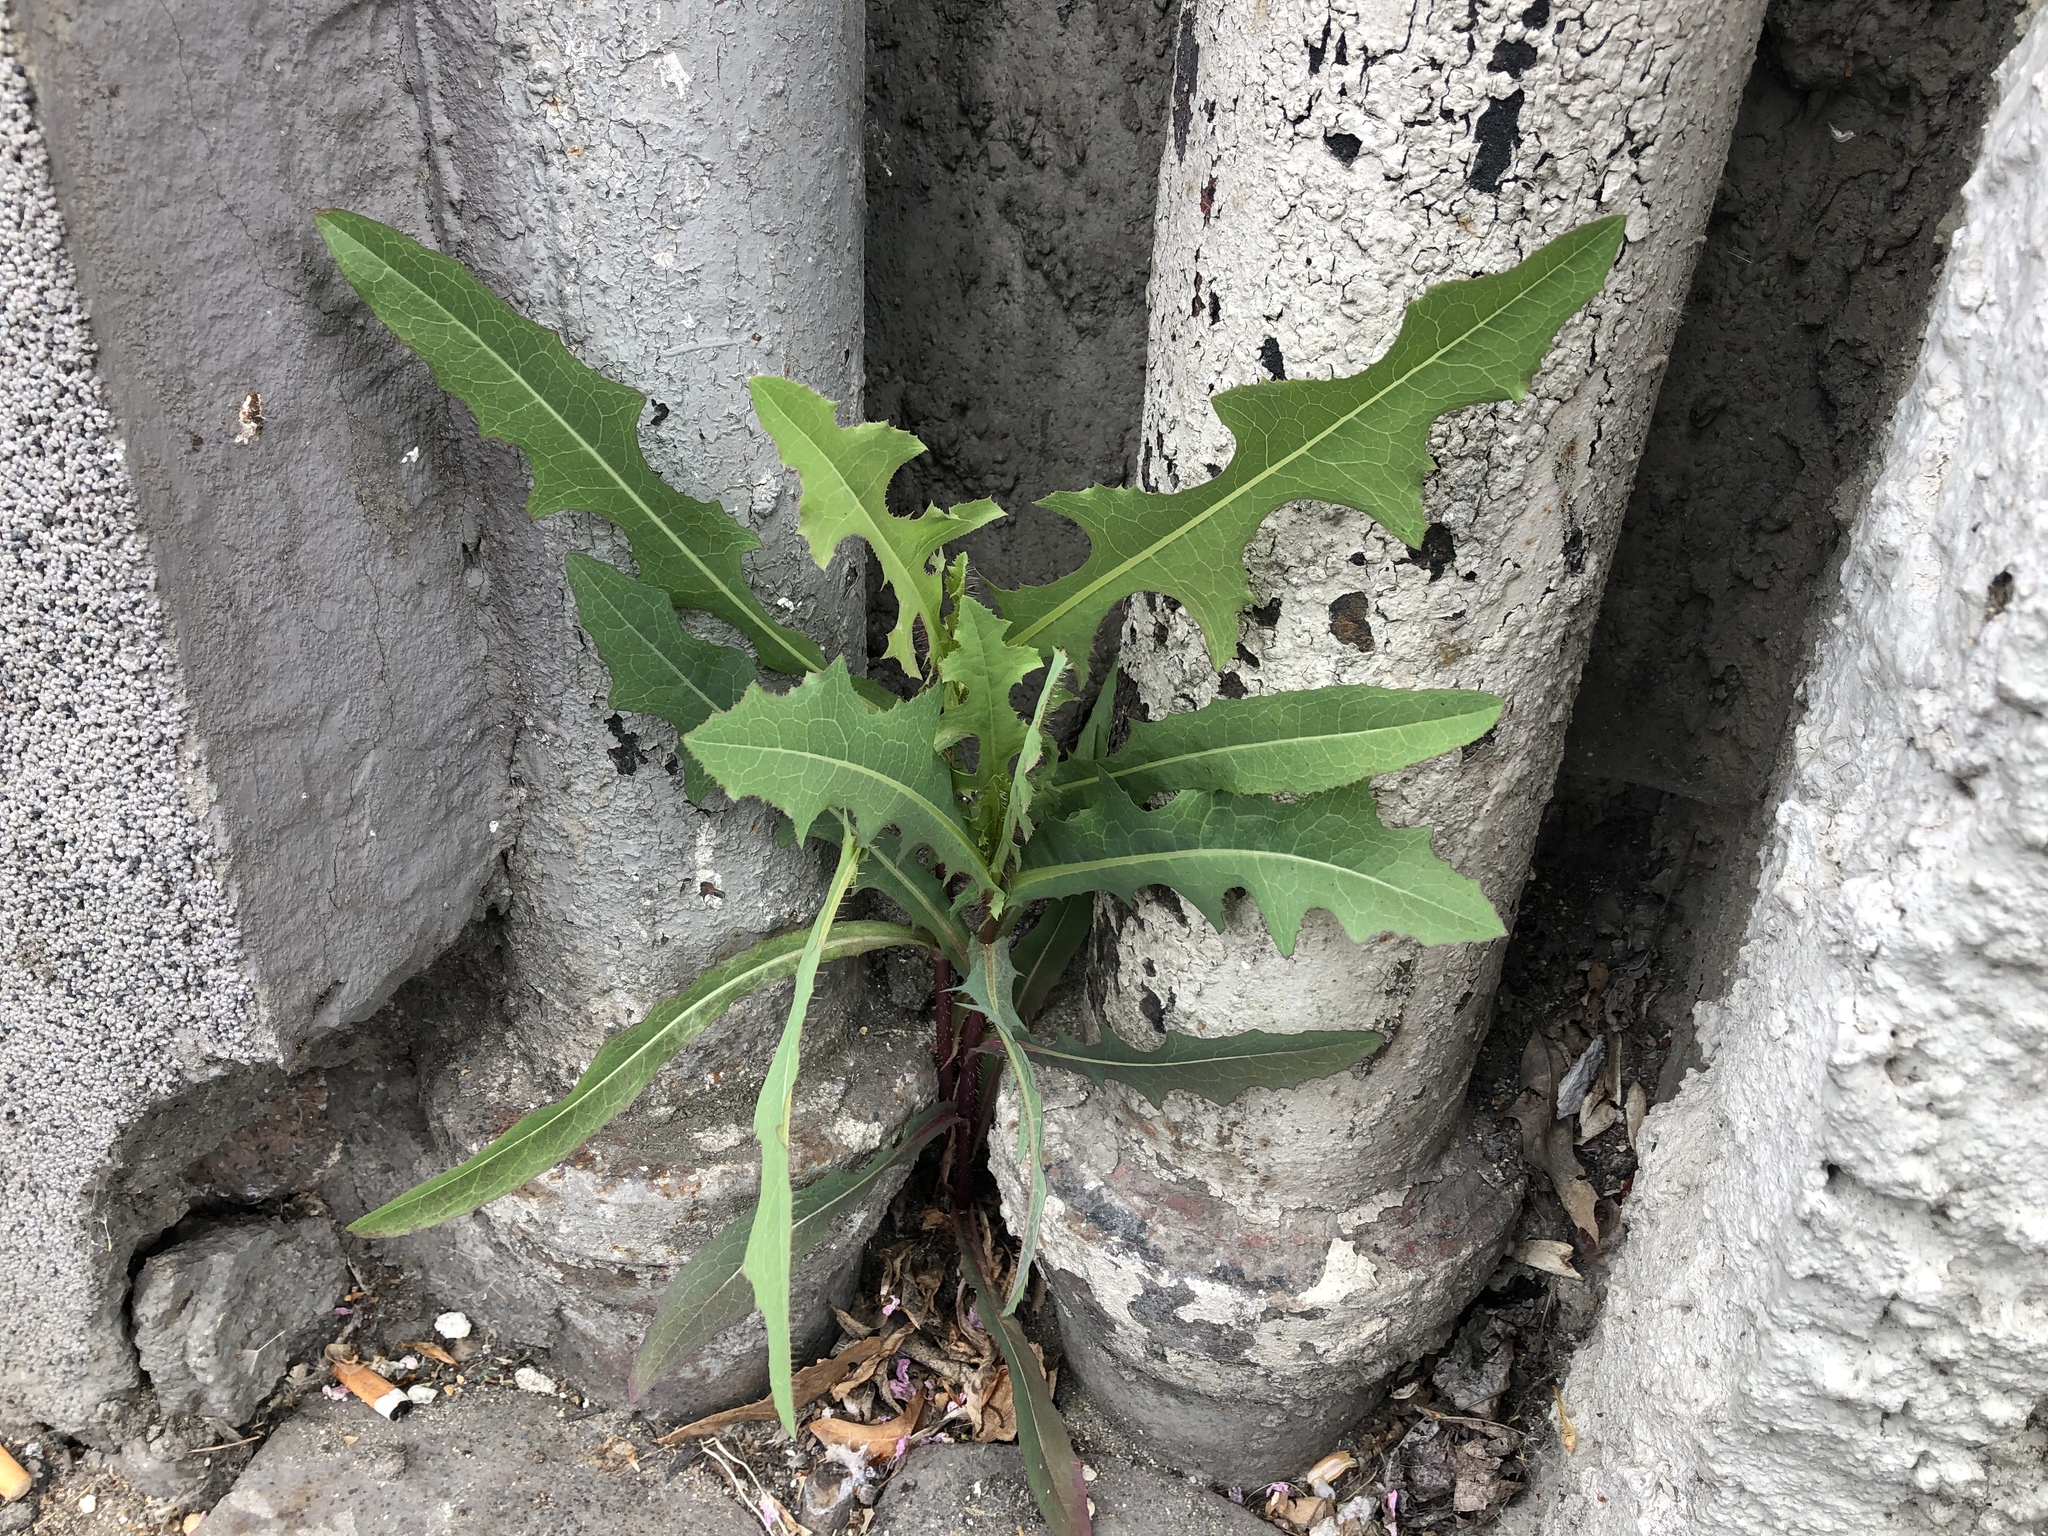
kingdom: Plantae
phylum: Tracheophyta
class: Magnoliopsida
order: Asterales
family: Asteraceae
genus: Lactuca
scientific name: Lactuca serriola
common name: Prickly lettuce
